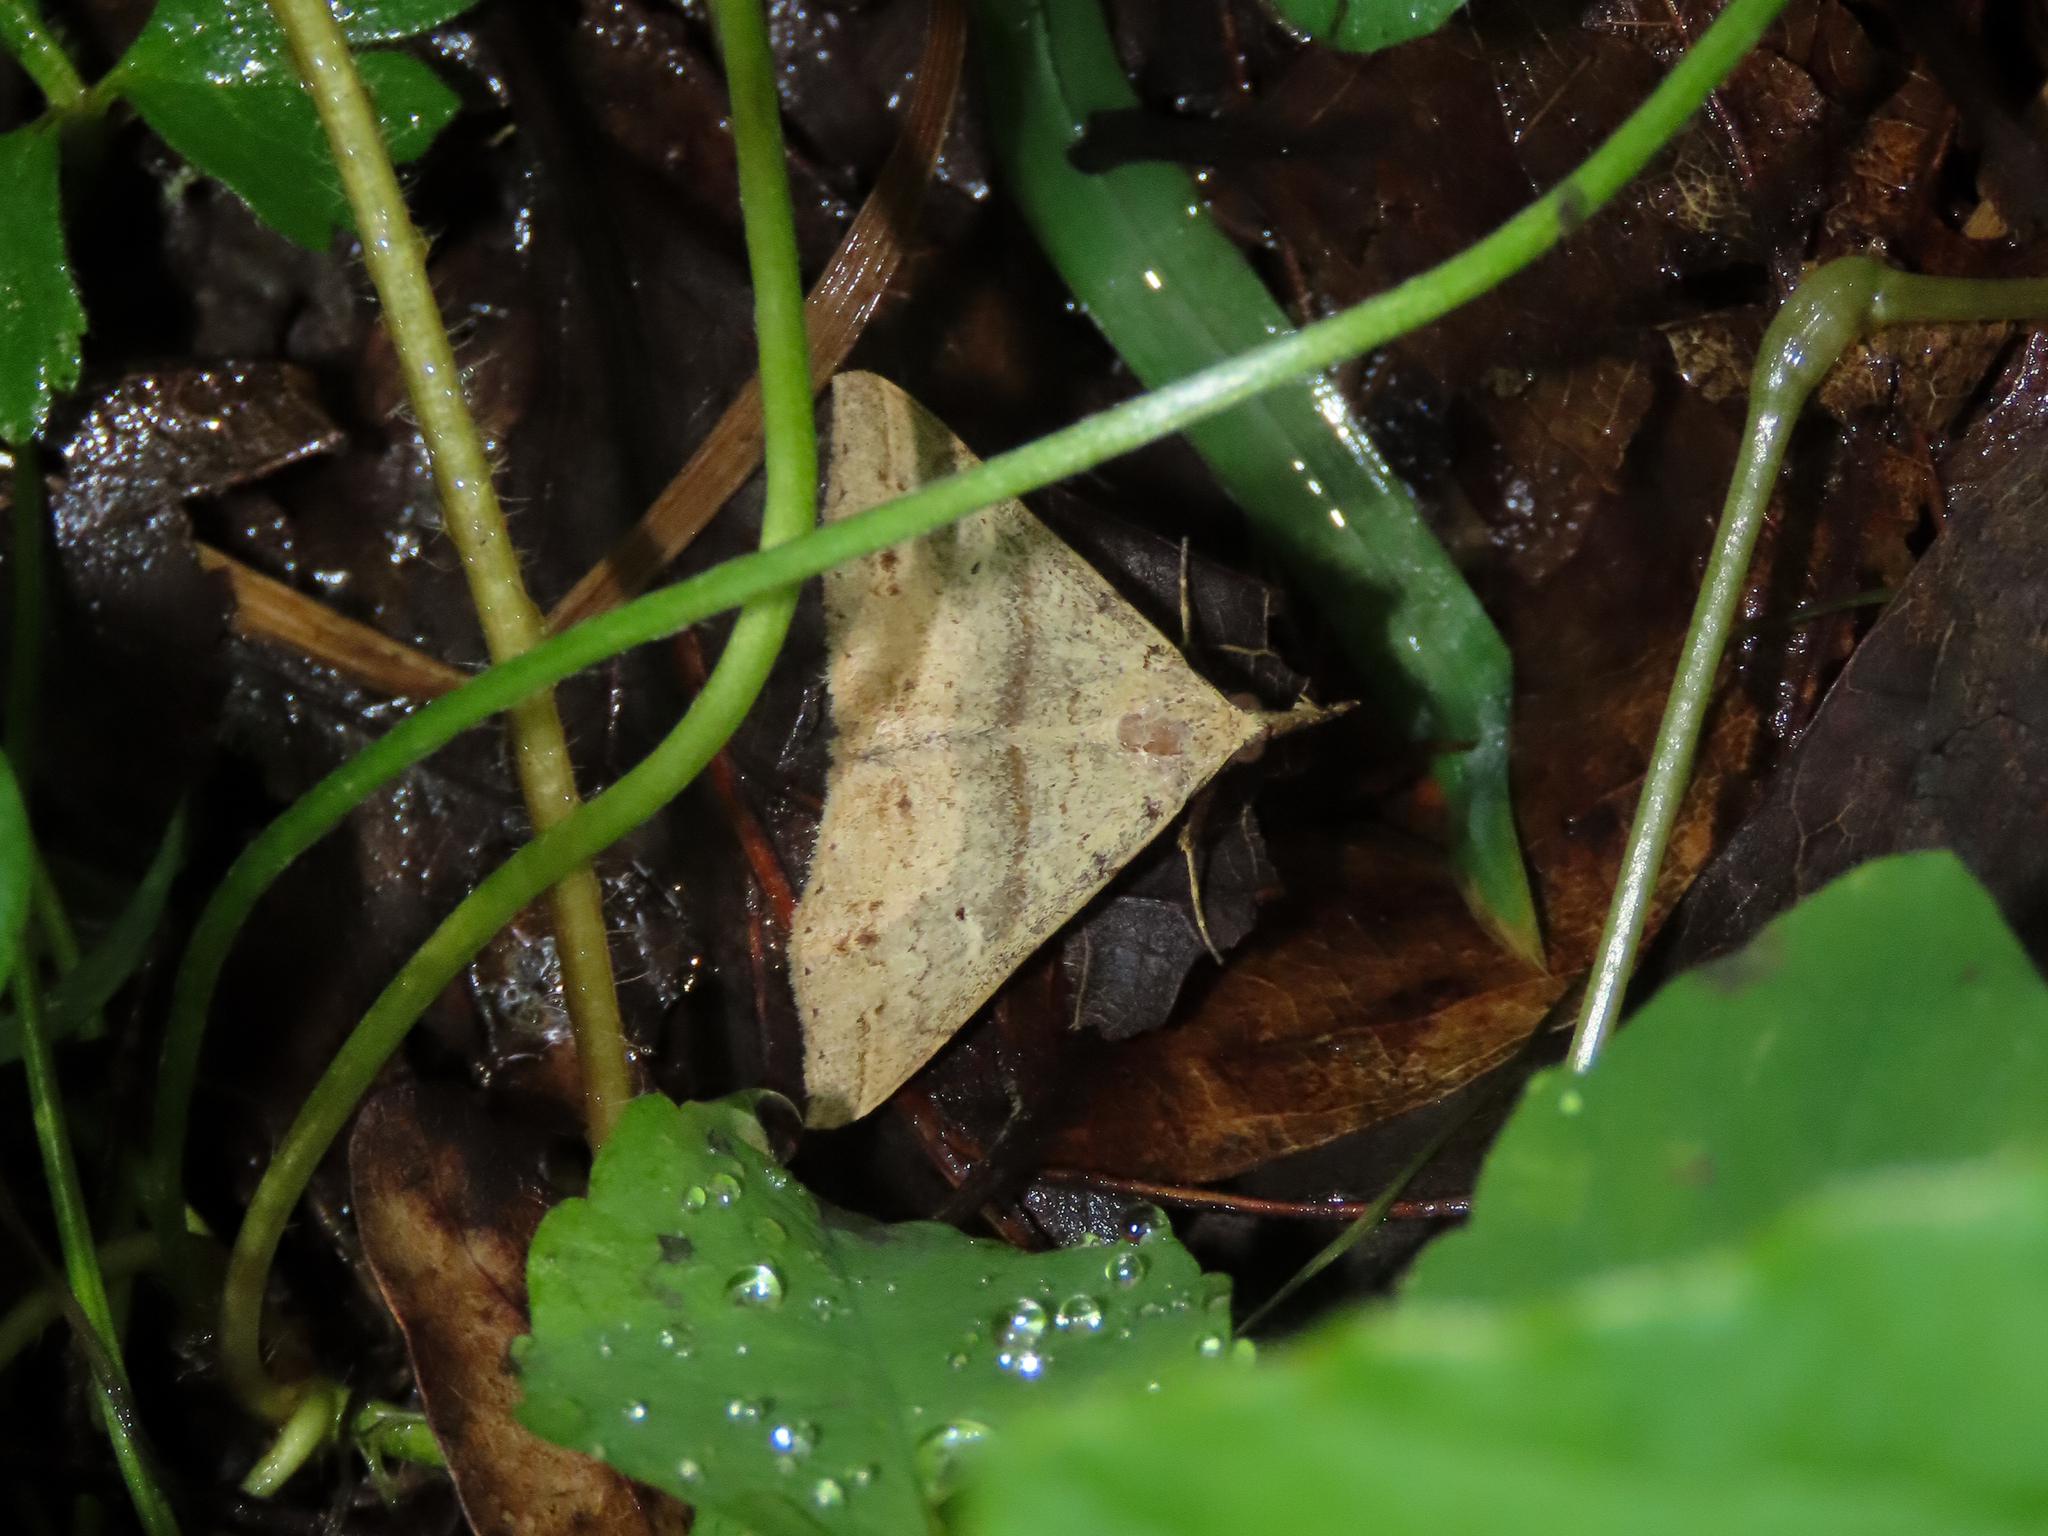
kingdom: Animalia
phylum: Arthropoda
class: Insecta
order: Lepidoptera
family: Erebidae
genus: Renia
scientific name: Renia salusalis
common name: Dotted renia moth
